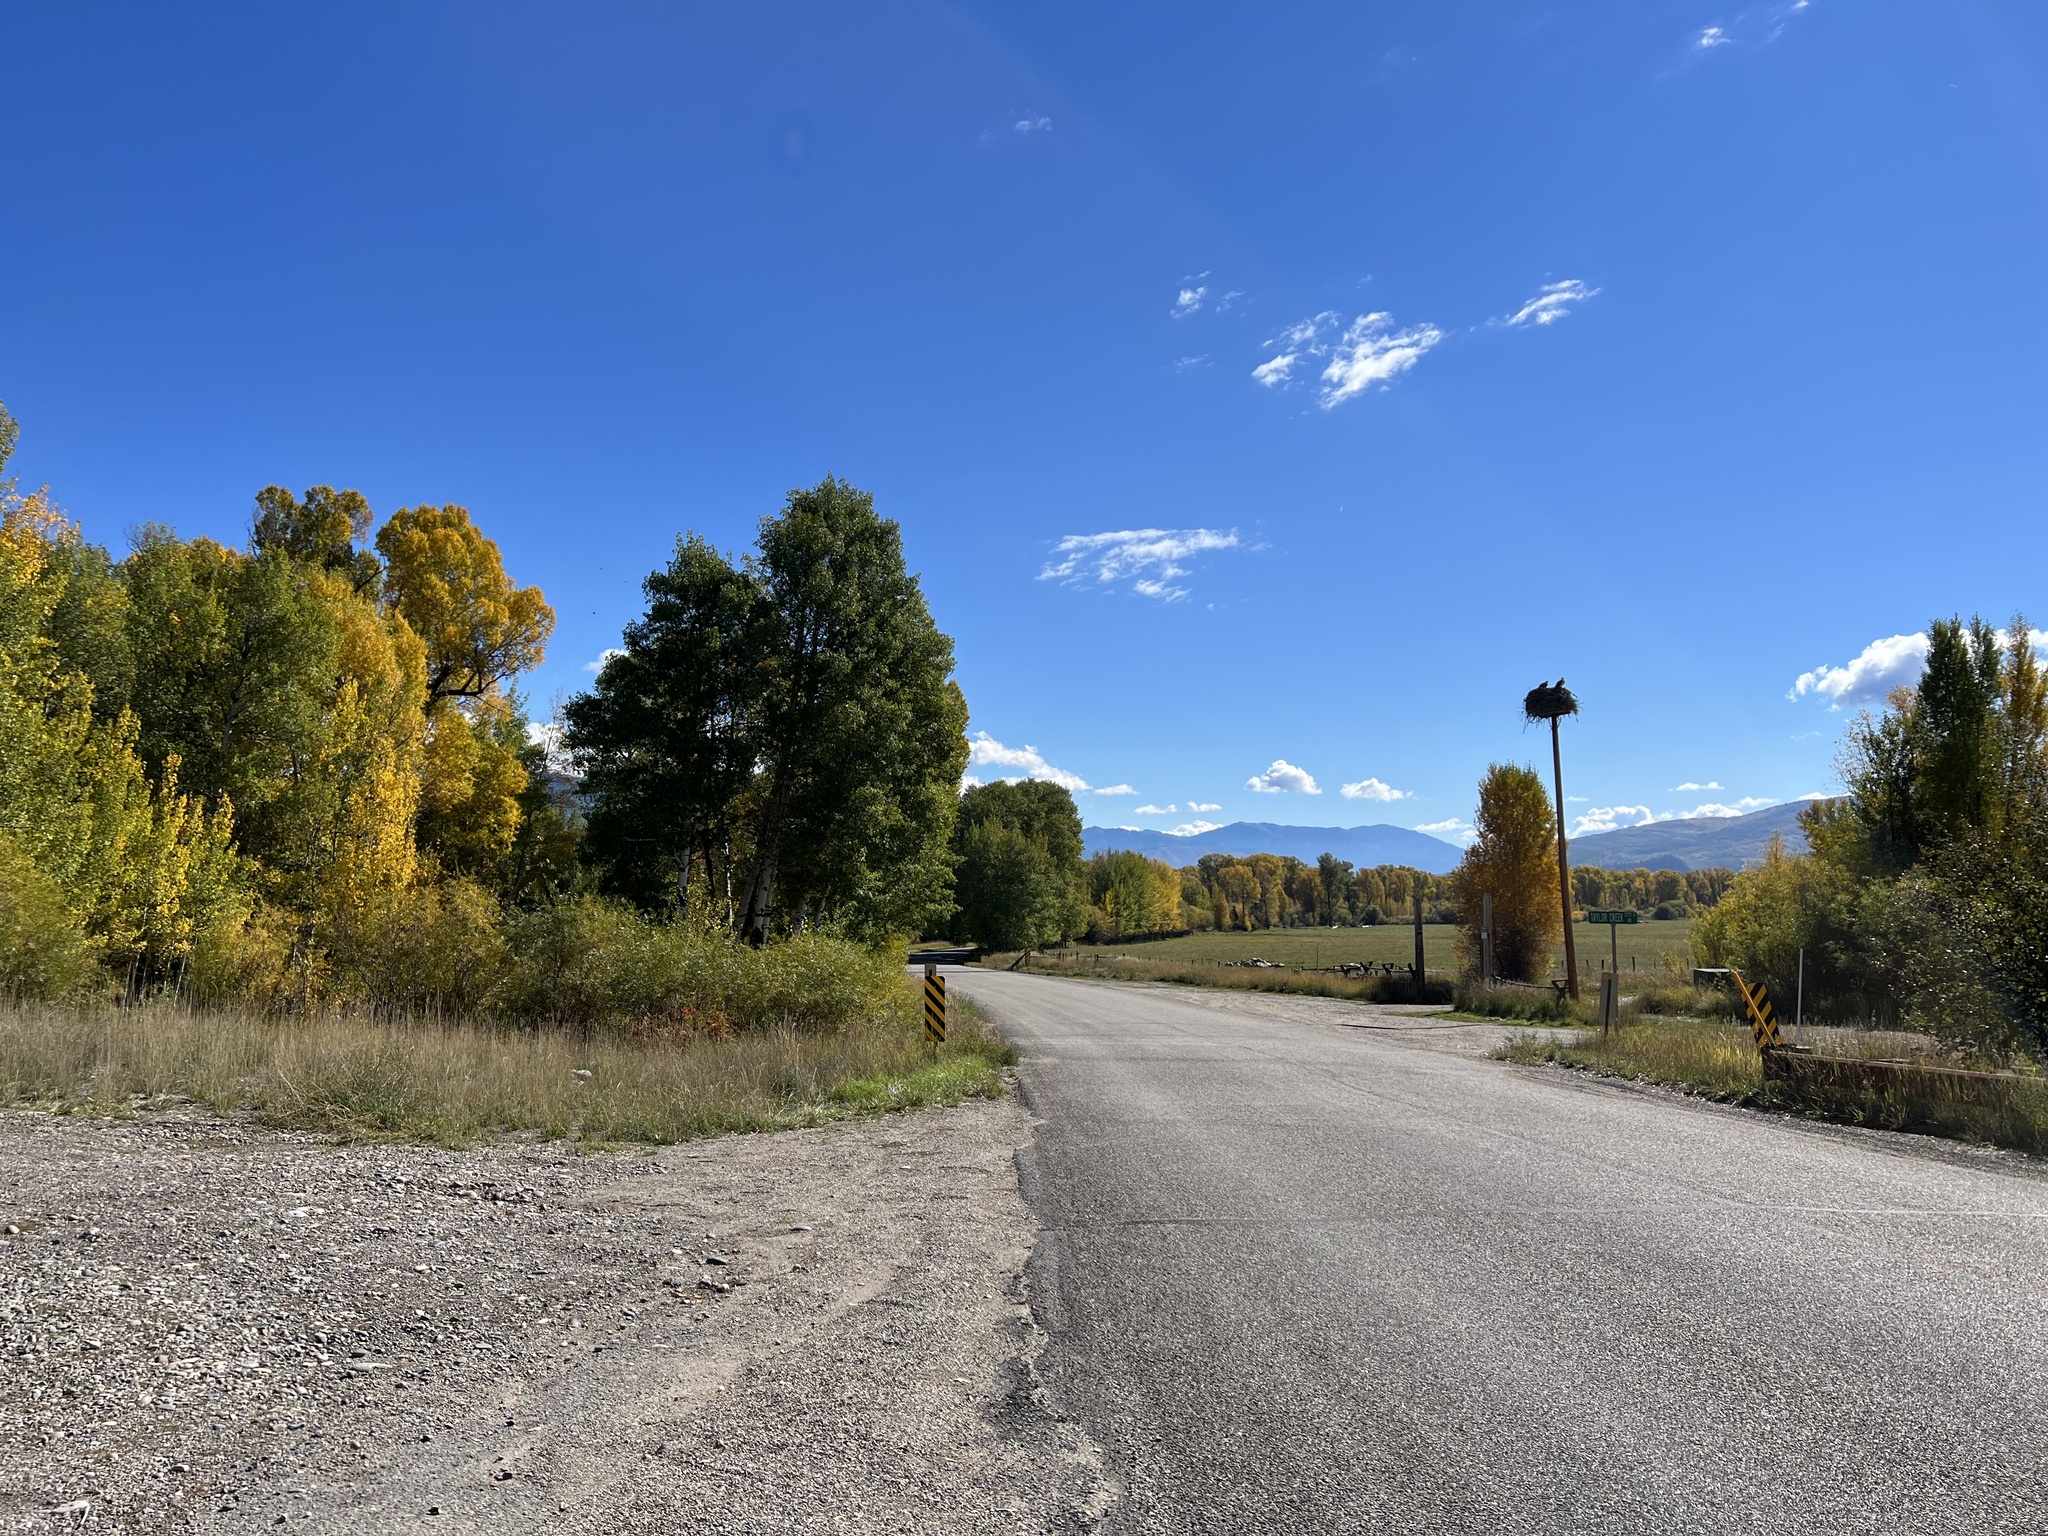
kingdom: Animalia
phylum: Chordata
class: Aves
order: Accipitriformes
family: Pandionidae
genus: Pandion
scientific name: Pandion haliaetus
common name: Osprey
